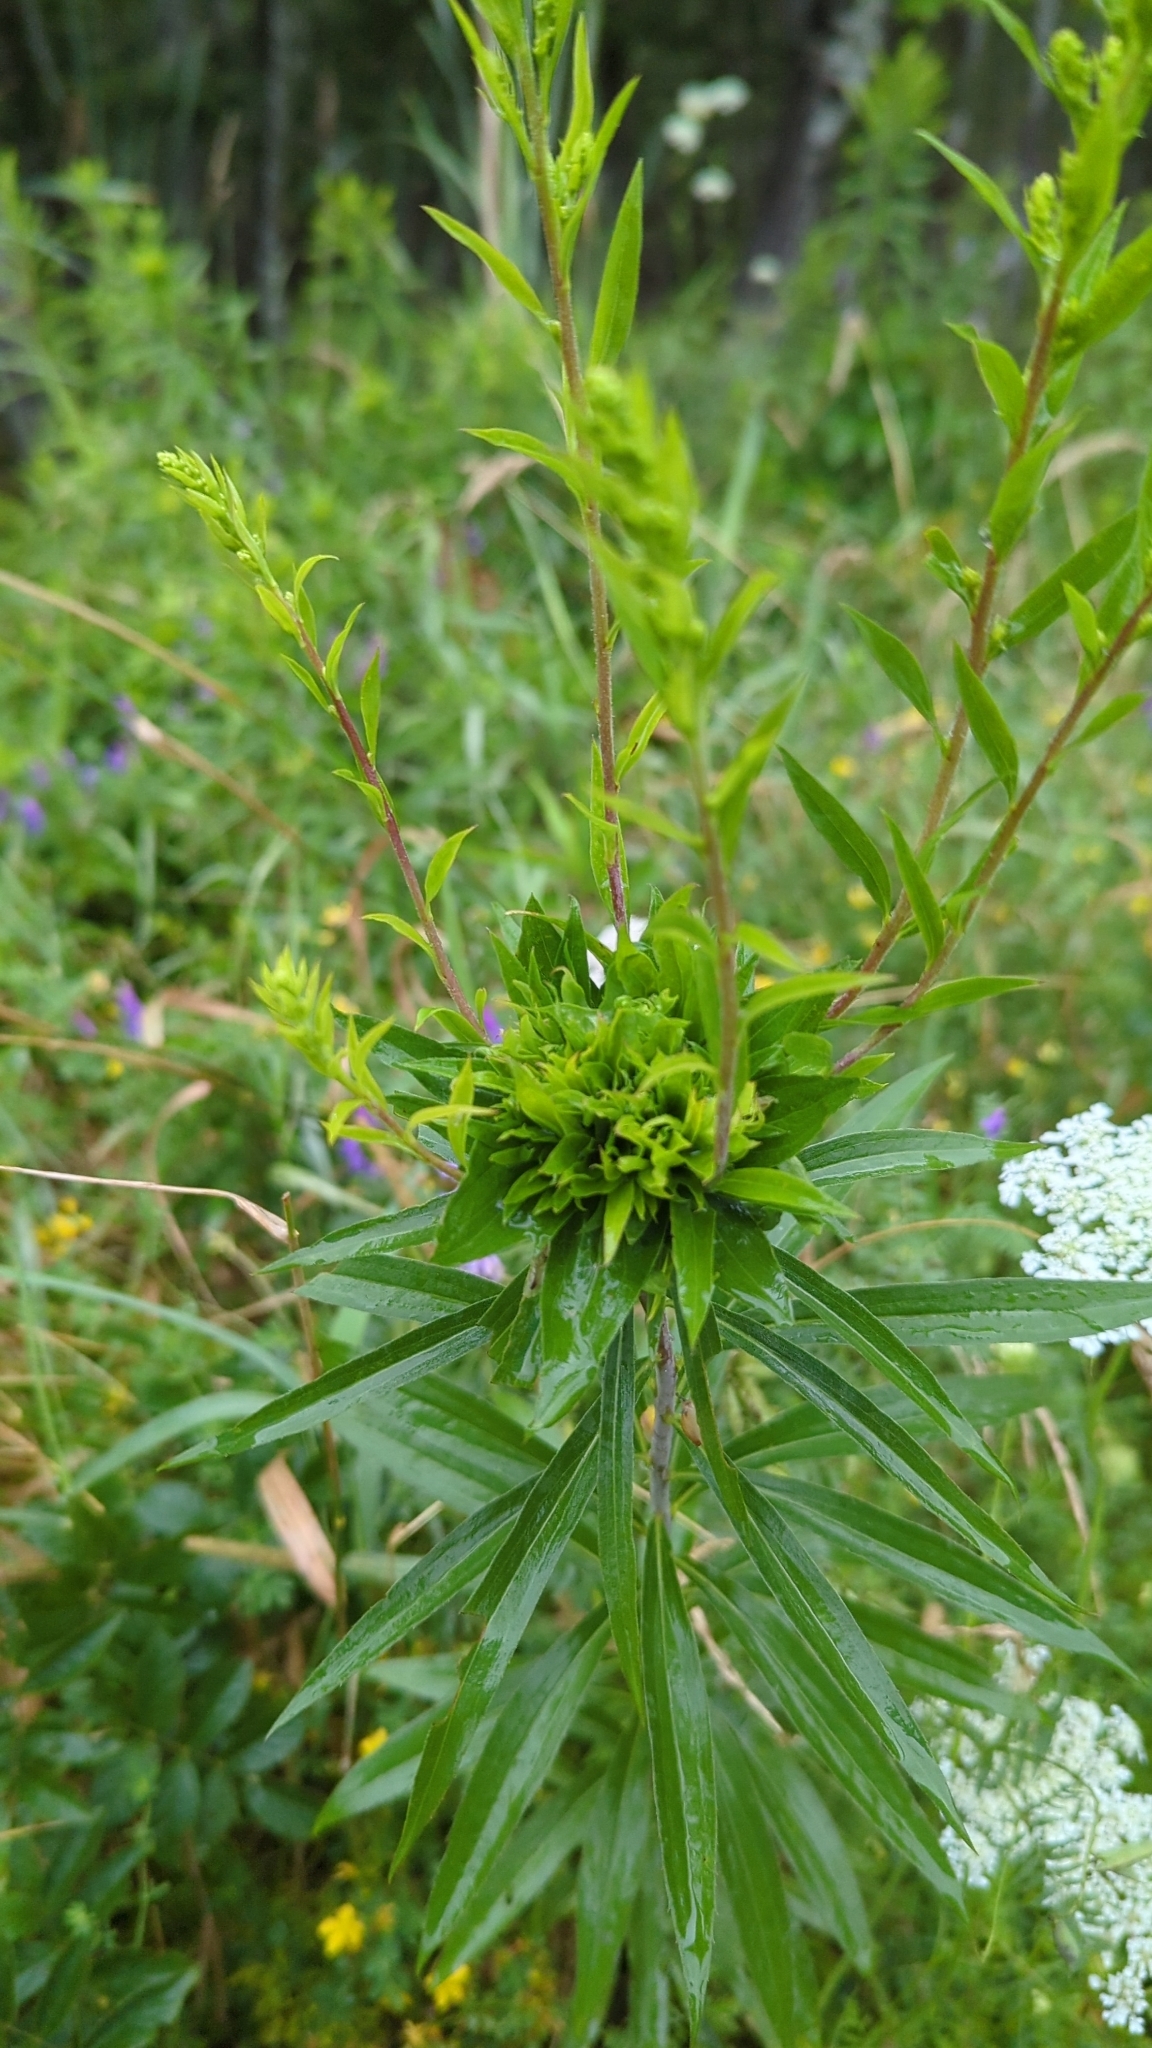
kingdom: Animalia
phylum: Arthropoda
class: Insecta
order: Diptera
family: Cecidomyiidae
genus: Rhopalomyia
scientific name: Rhopalomyia solidaginis
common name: Goldenrod bunch gall midge
